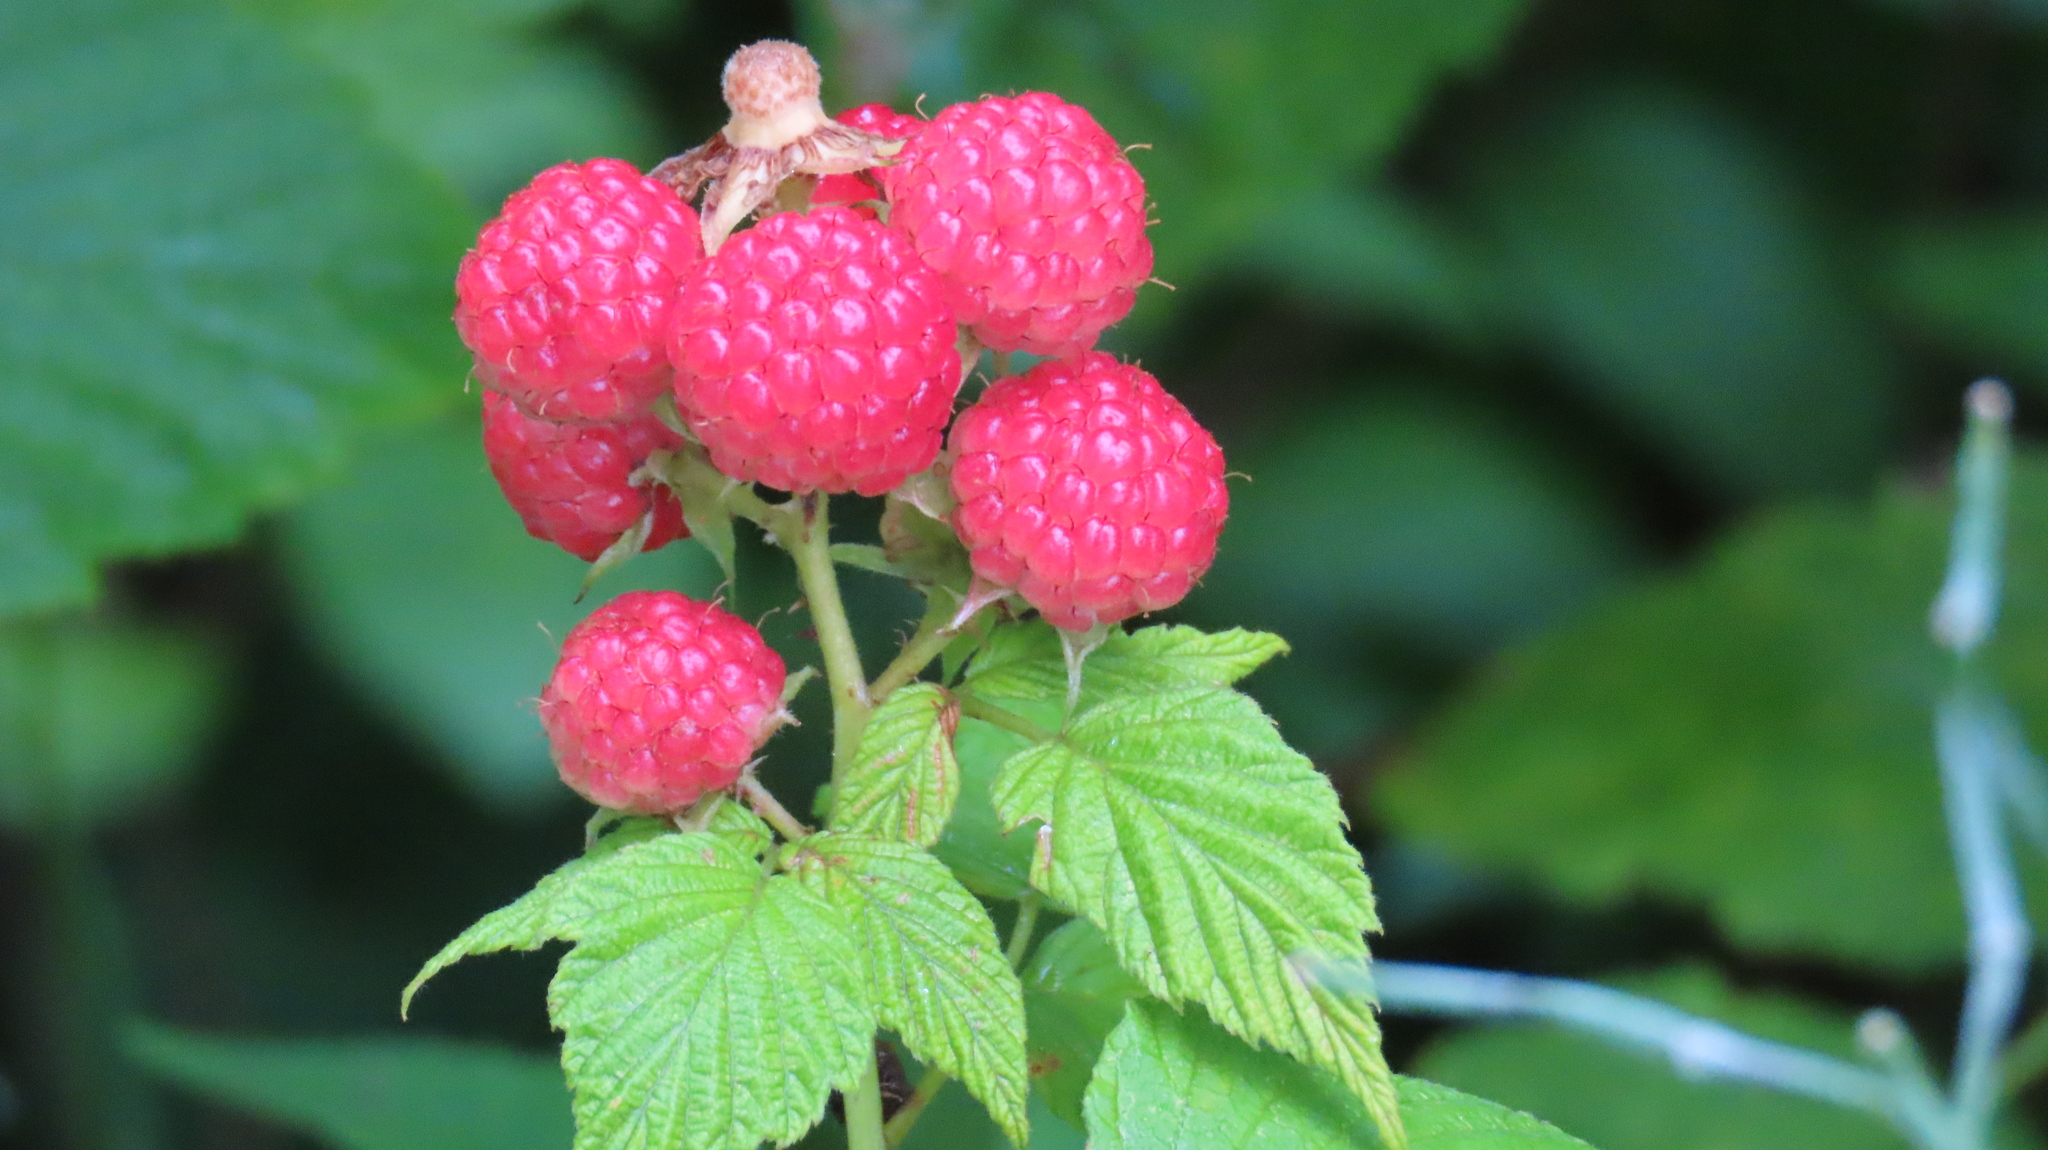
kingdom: Plantae
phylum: Tracheophyta
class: Magnoliopsida
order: Rosales
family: Rosaceae
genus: Rubus
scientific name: Rubus occidentalis
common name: Black raspberry
